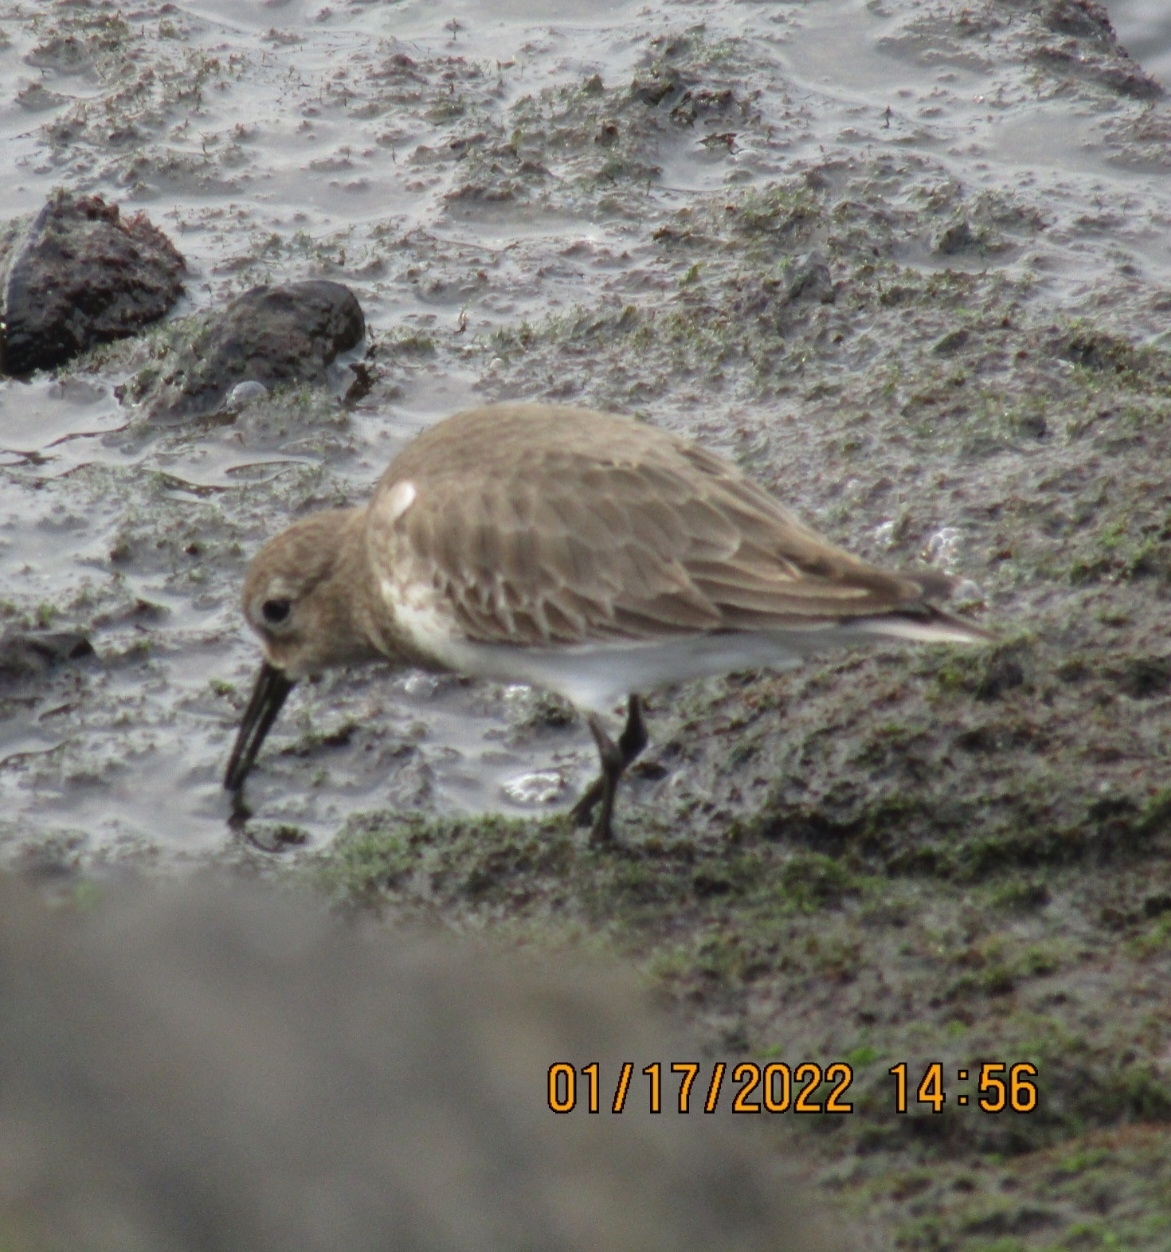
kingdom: Animalia
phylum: Chordata
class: Aves
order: Charadriiformes
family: Scolopacidae
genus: Calidris
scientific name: Calidris alpina
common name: Dunlin
